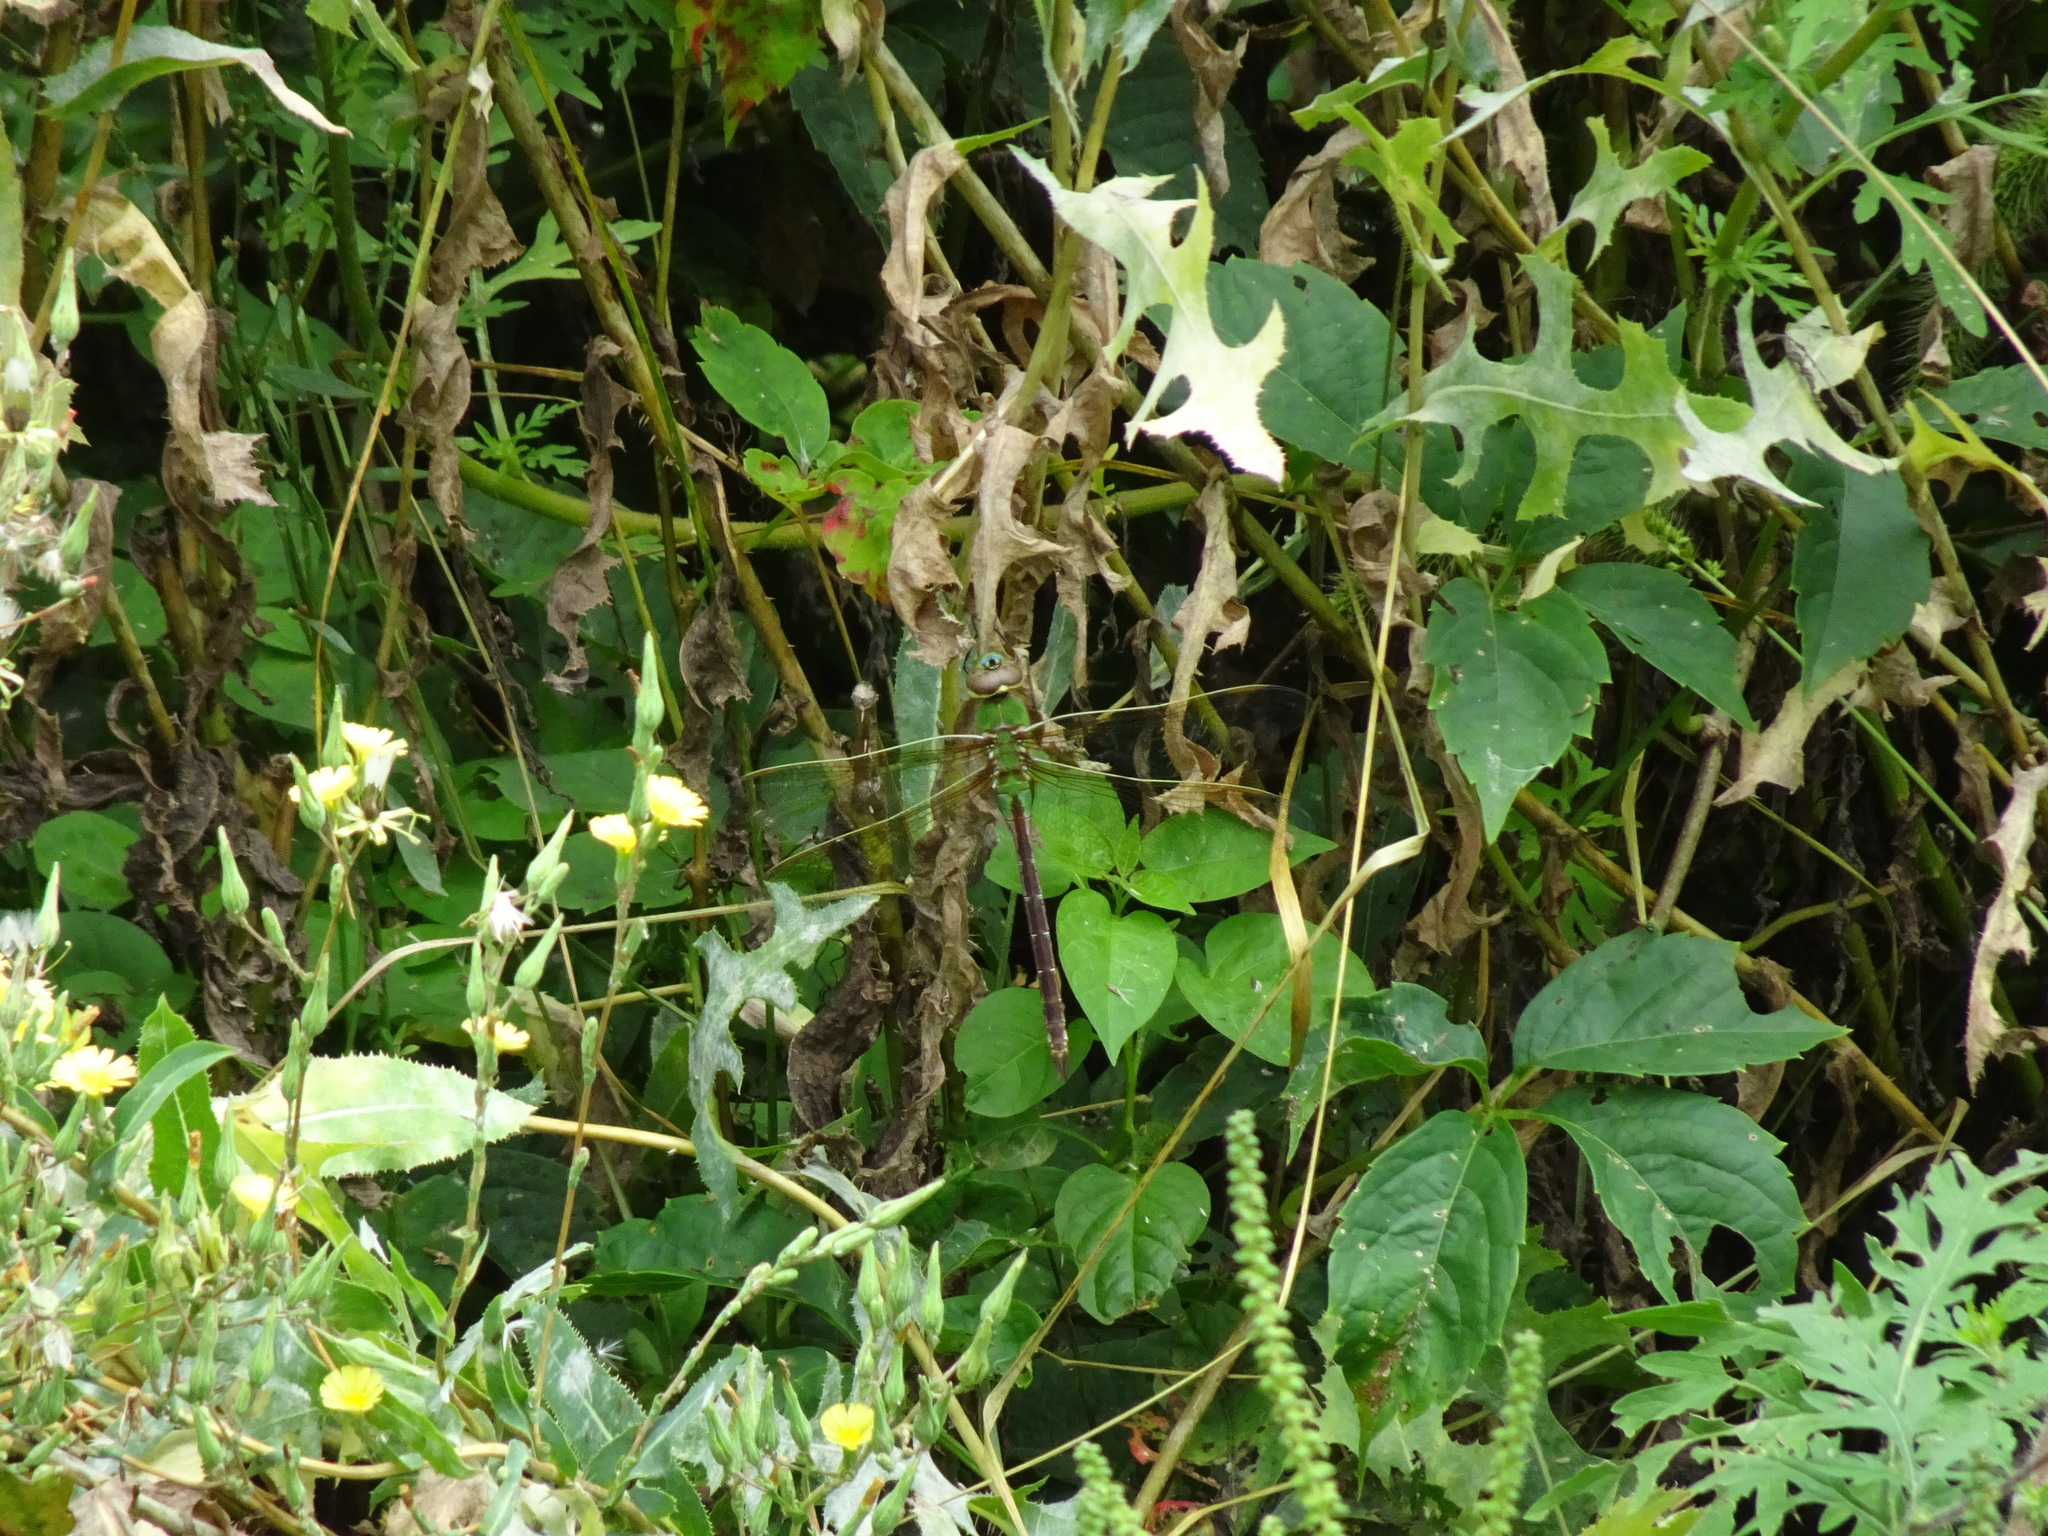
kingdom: Animalia
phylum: Arthropoda
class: Insecta
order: Odonata
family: Aeshnidae
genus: Anax
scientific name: Anax junius
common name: Common green darner
